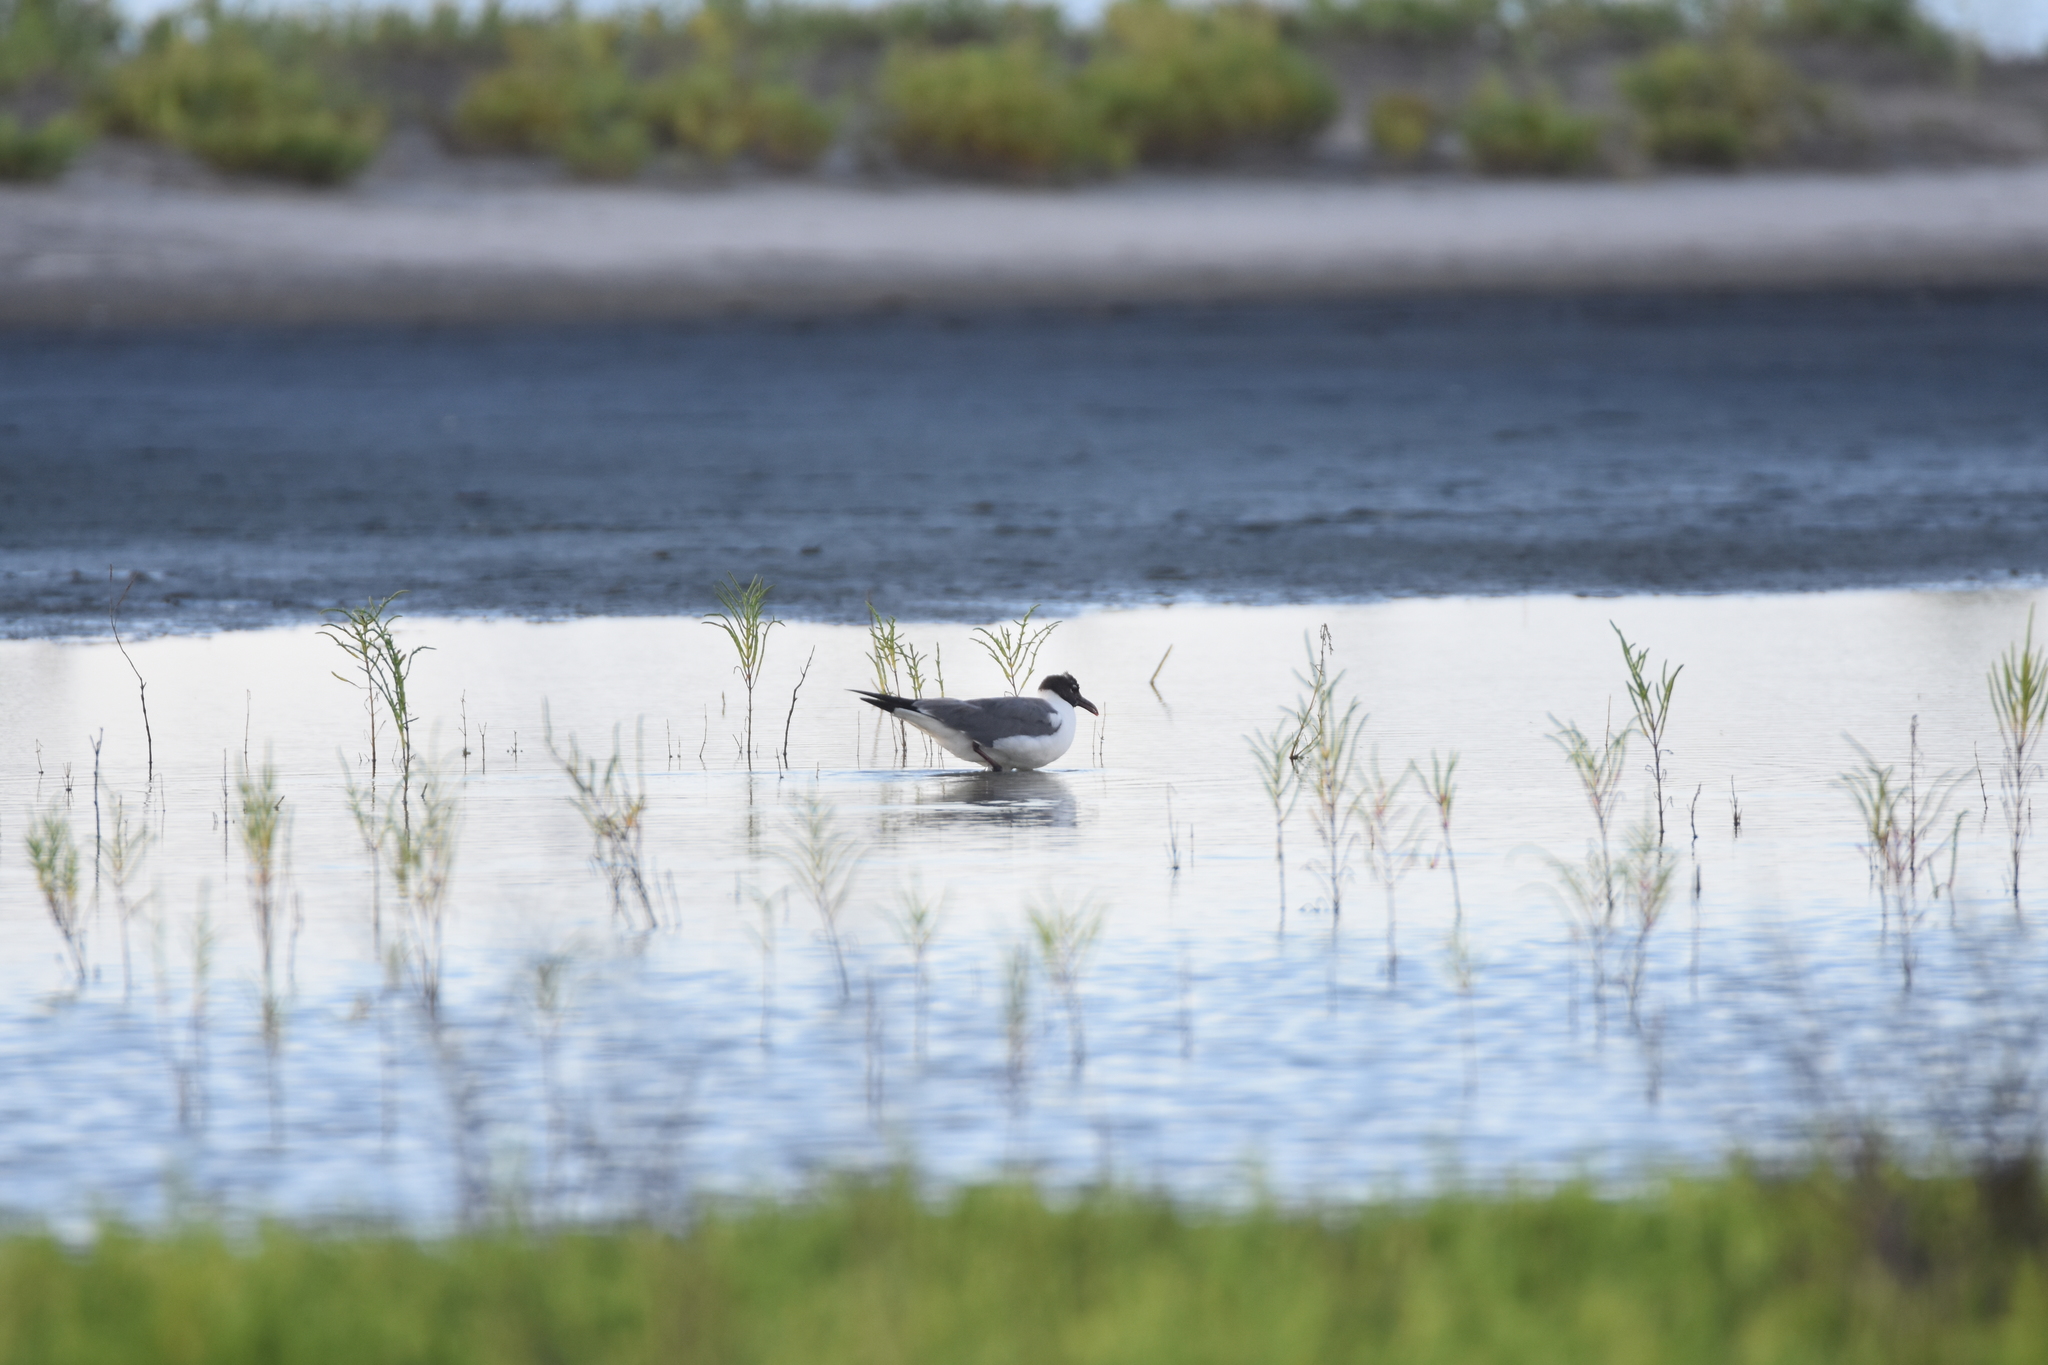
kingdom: Animalia
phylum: Chordata
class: Aves
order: Charadriiformes
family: Laridae
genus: Leucophaeus
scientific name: Leucophaeus atricilla
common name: Laughing gull
